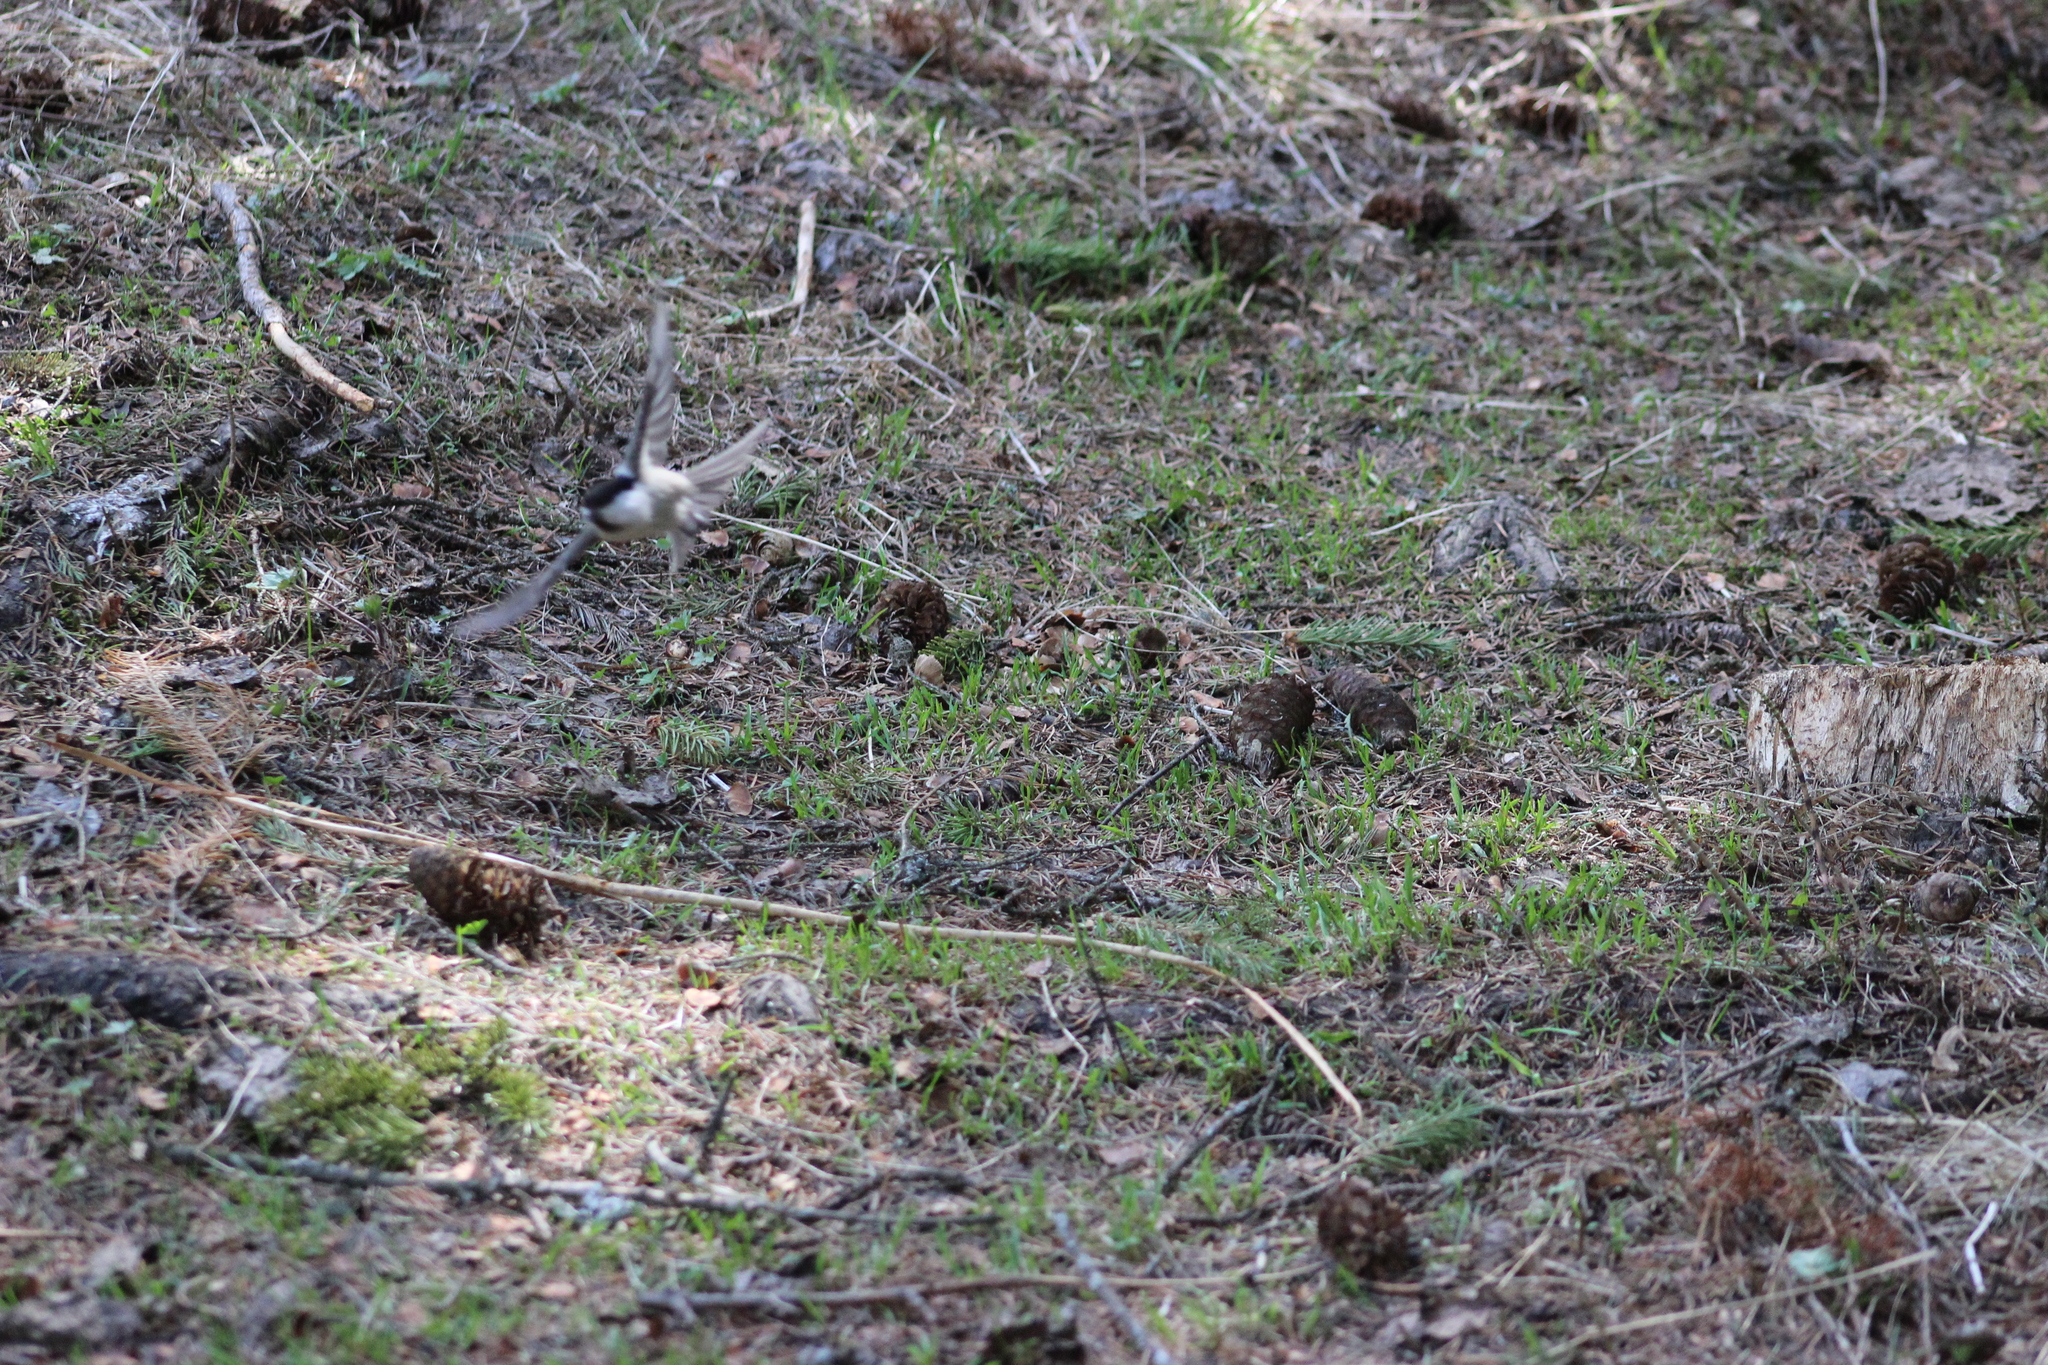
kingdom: Animalia
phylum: Chordata
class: Aves
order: Passeriformes
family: Paridae
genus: Poecile
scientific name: Poecile montanus
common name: Willow tit
